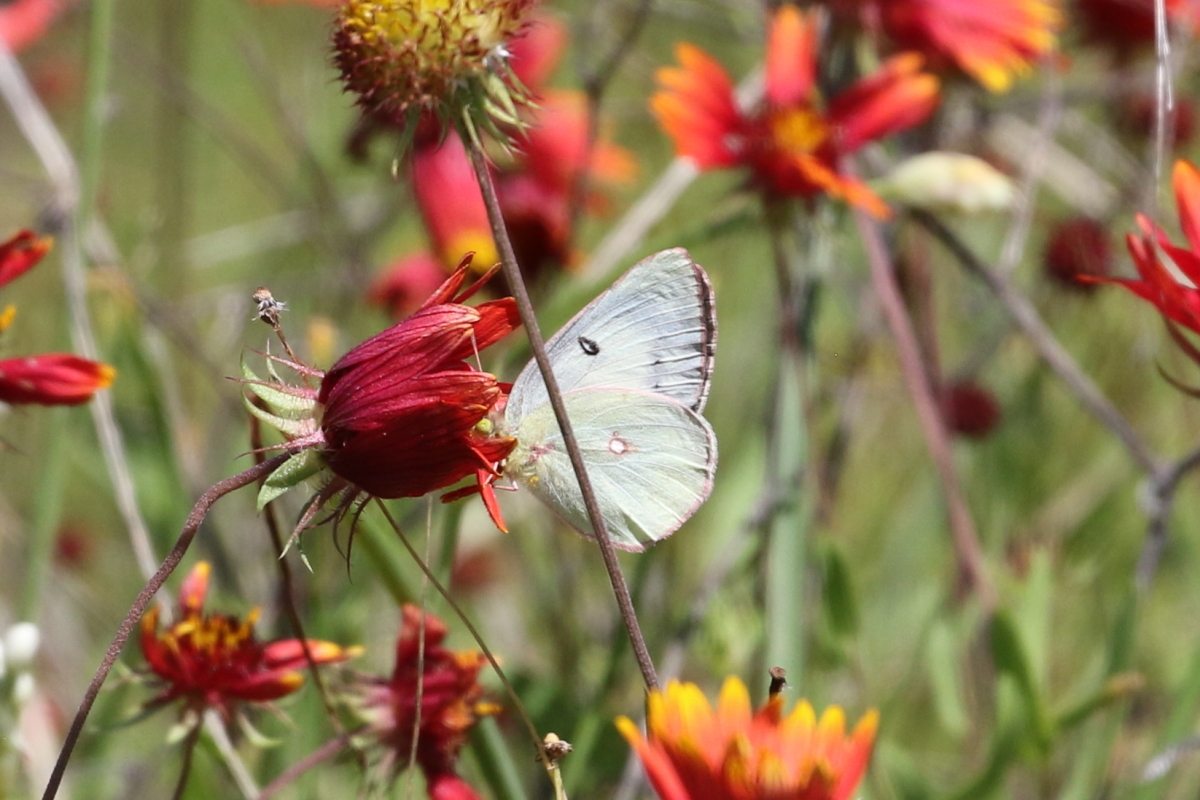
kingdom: Animalia
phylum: Arthropoda
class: Insecta
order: Lepidoptera
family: Pieridae
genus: Colias
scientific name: Colias eurytheme
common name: Alfalfa butterfly
